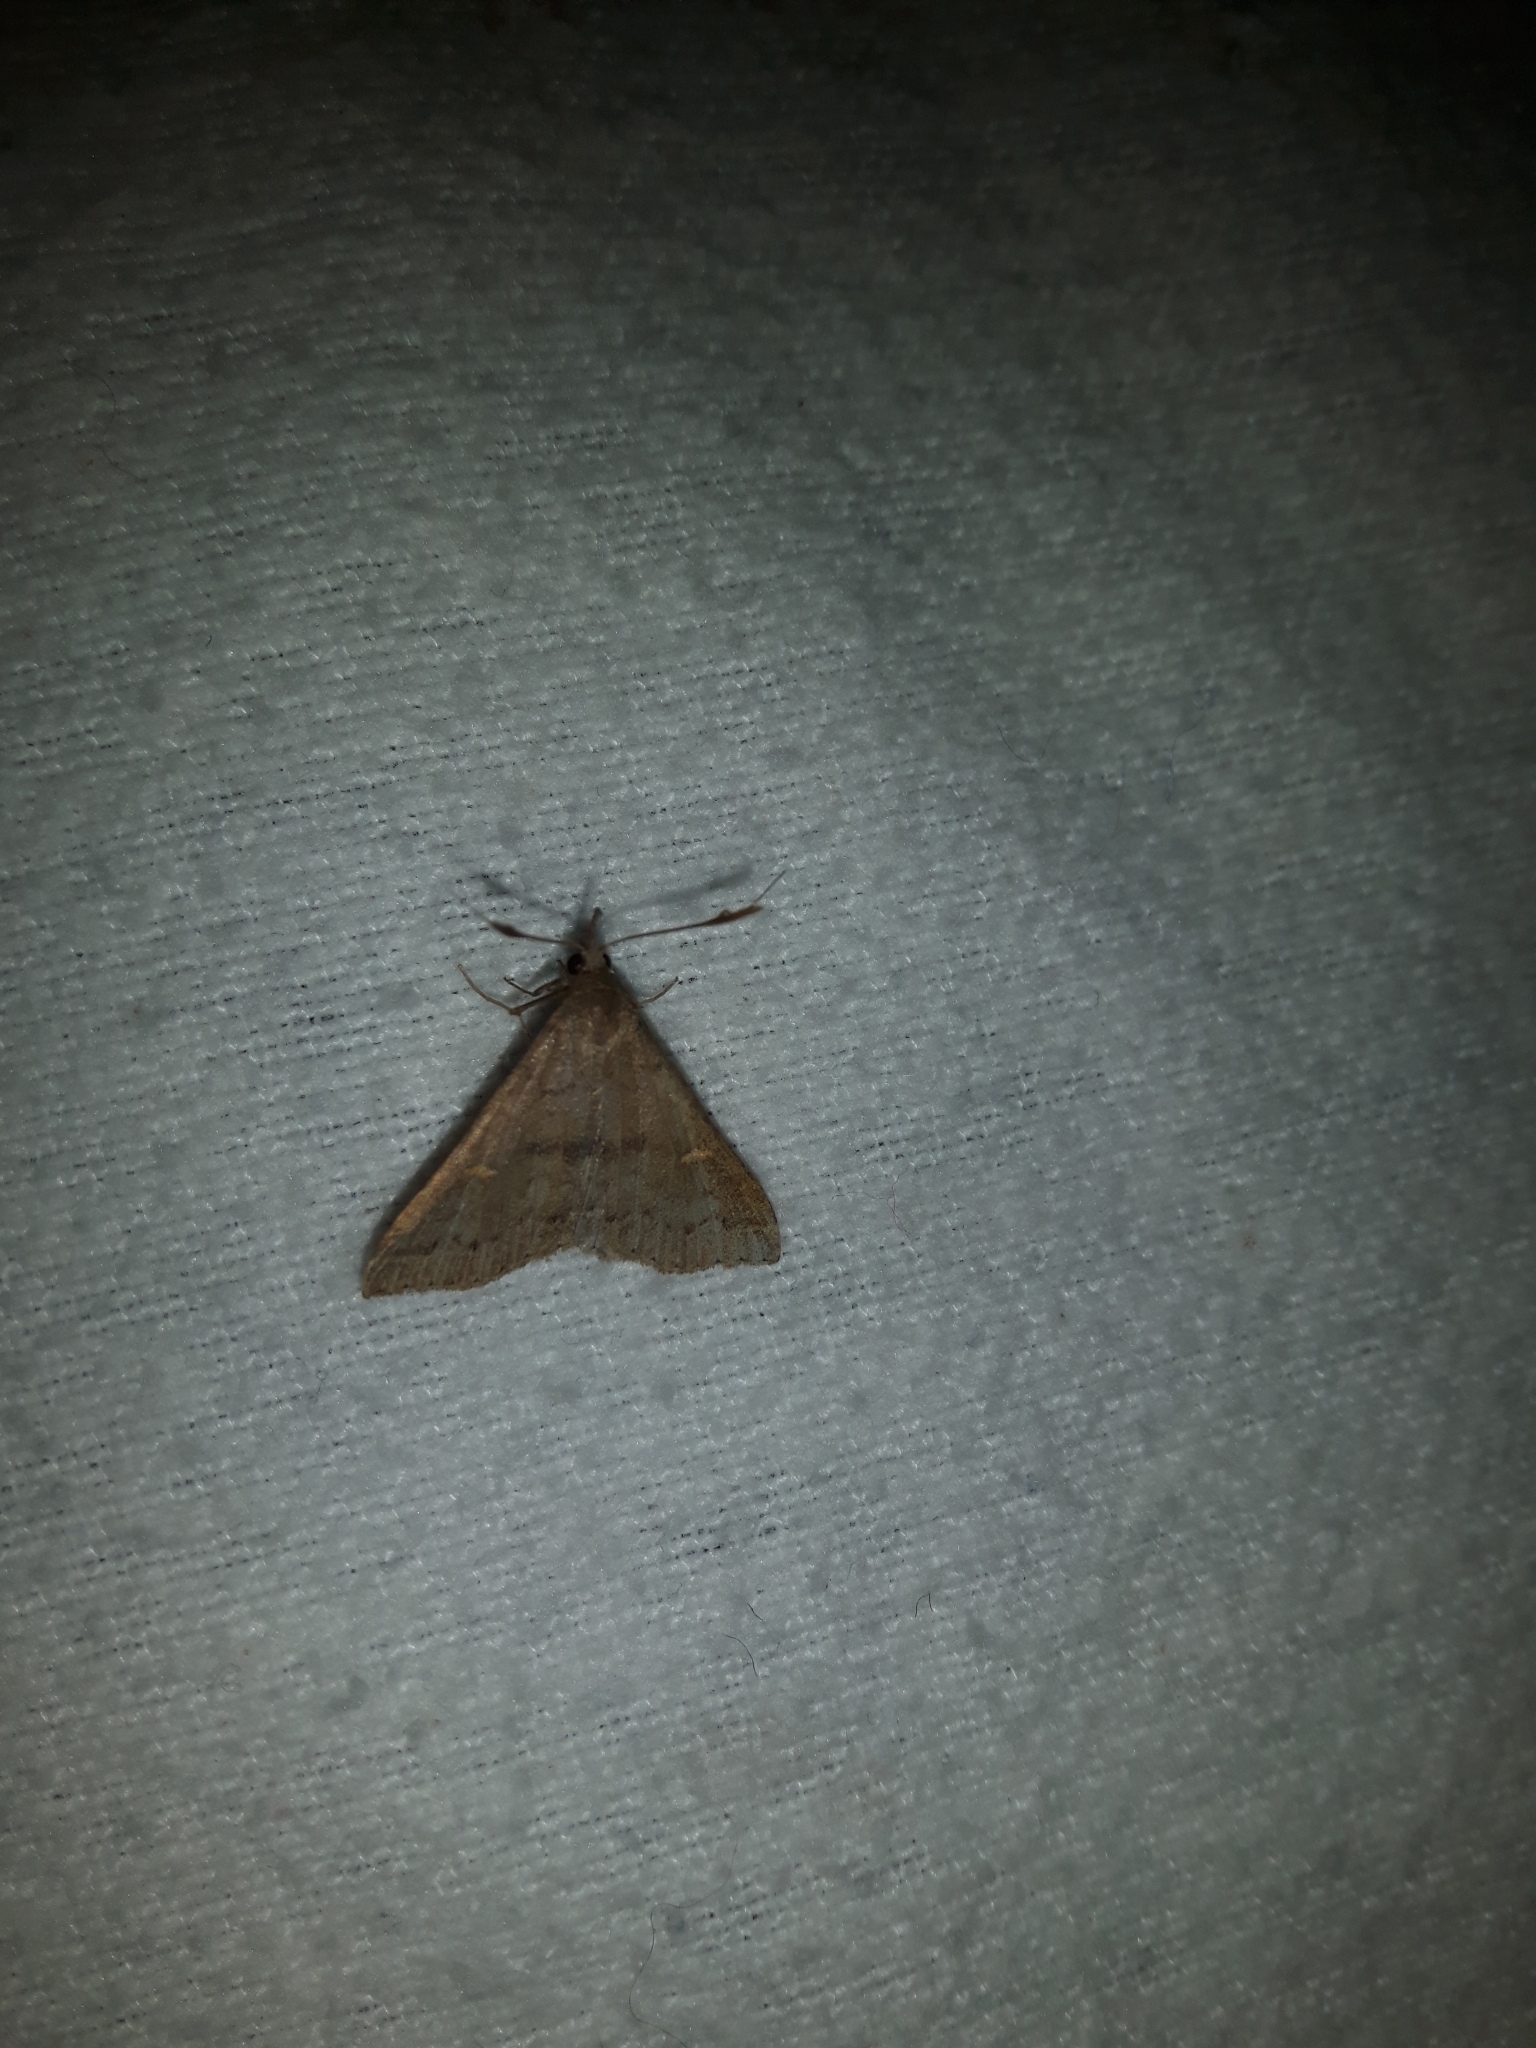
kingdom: Animalia
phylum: Arthropoda
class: Insecta
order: Lepidoptera
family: Erebidae
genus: Renia
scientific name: Renia adspergillus
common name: Speckled renia moth
